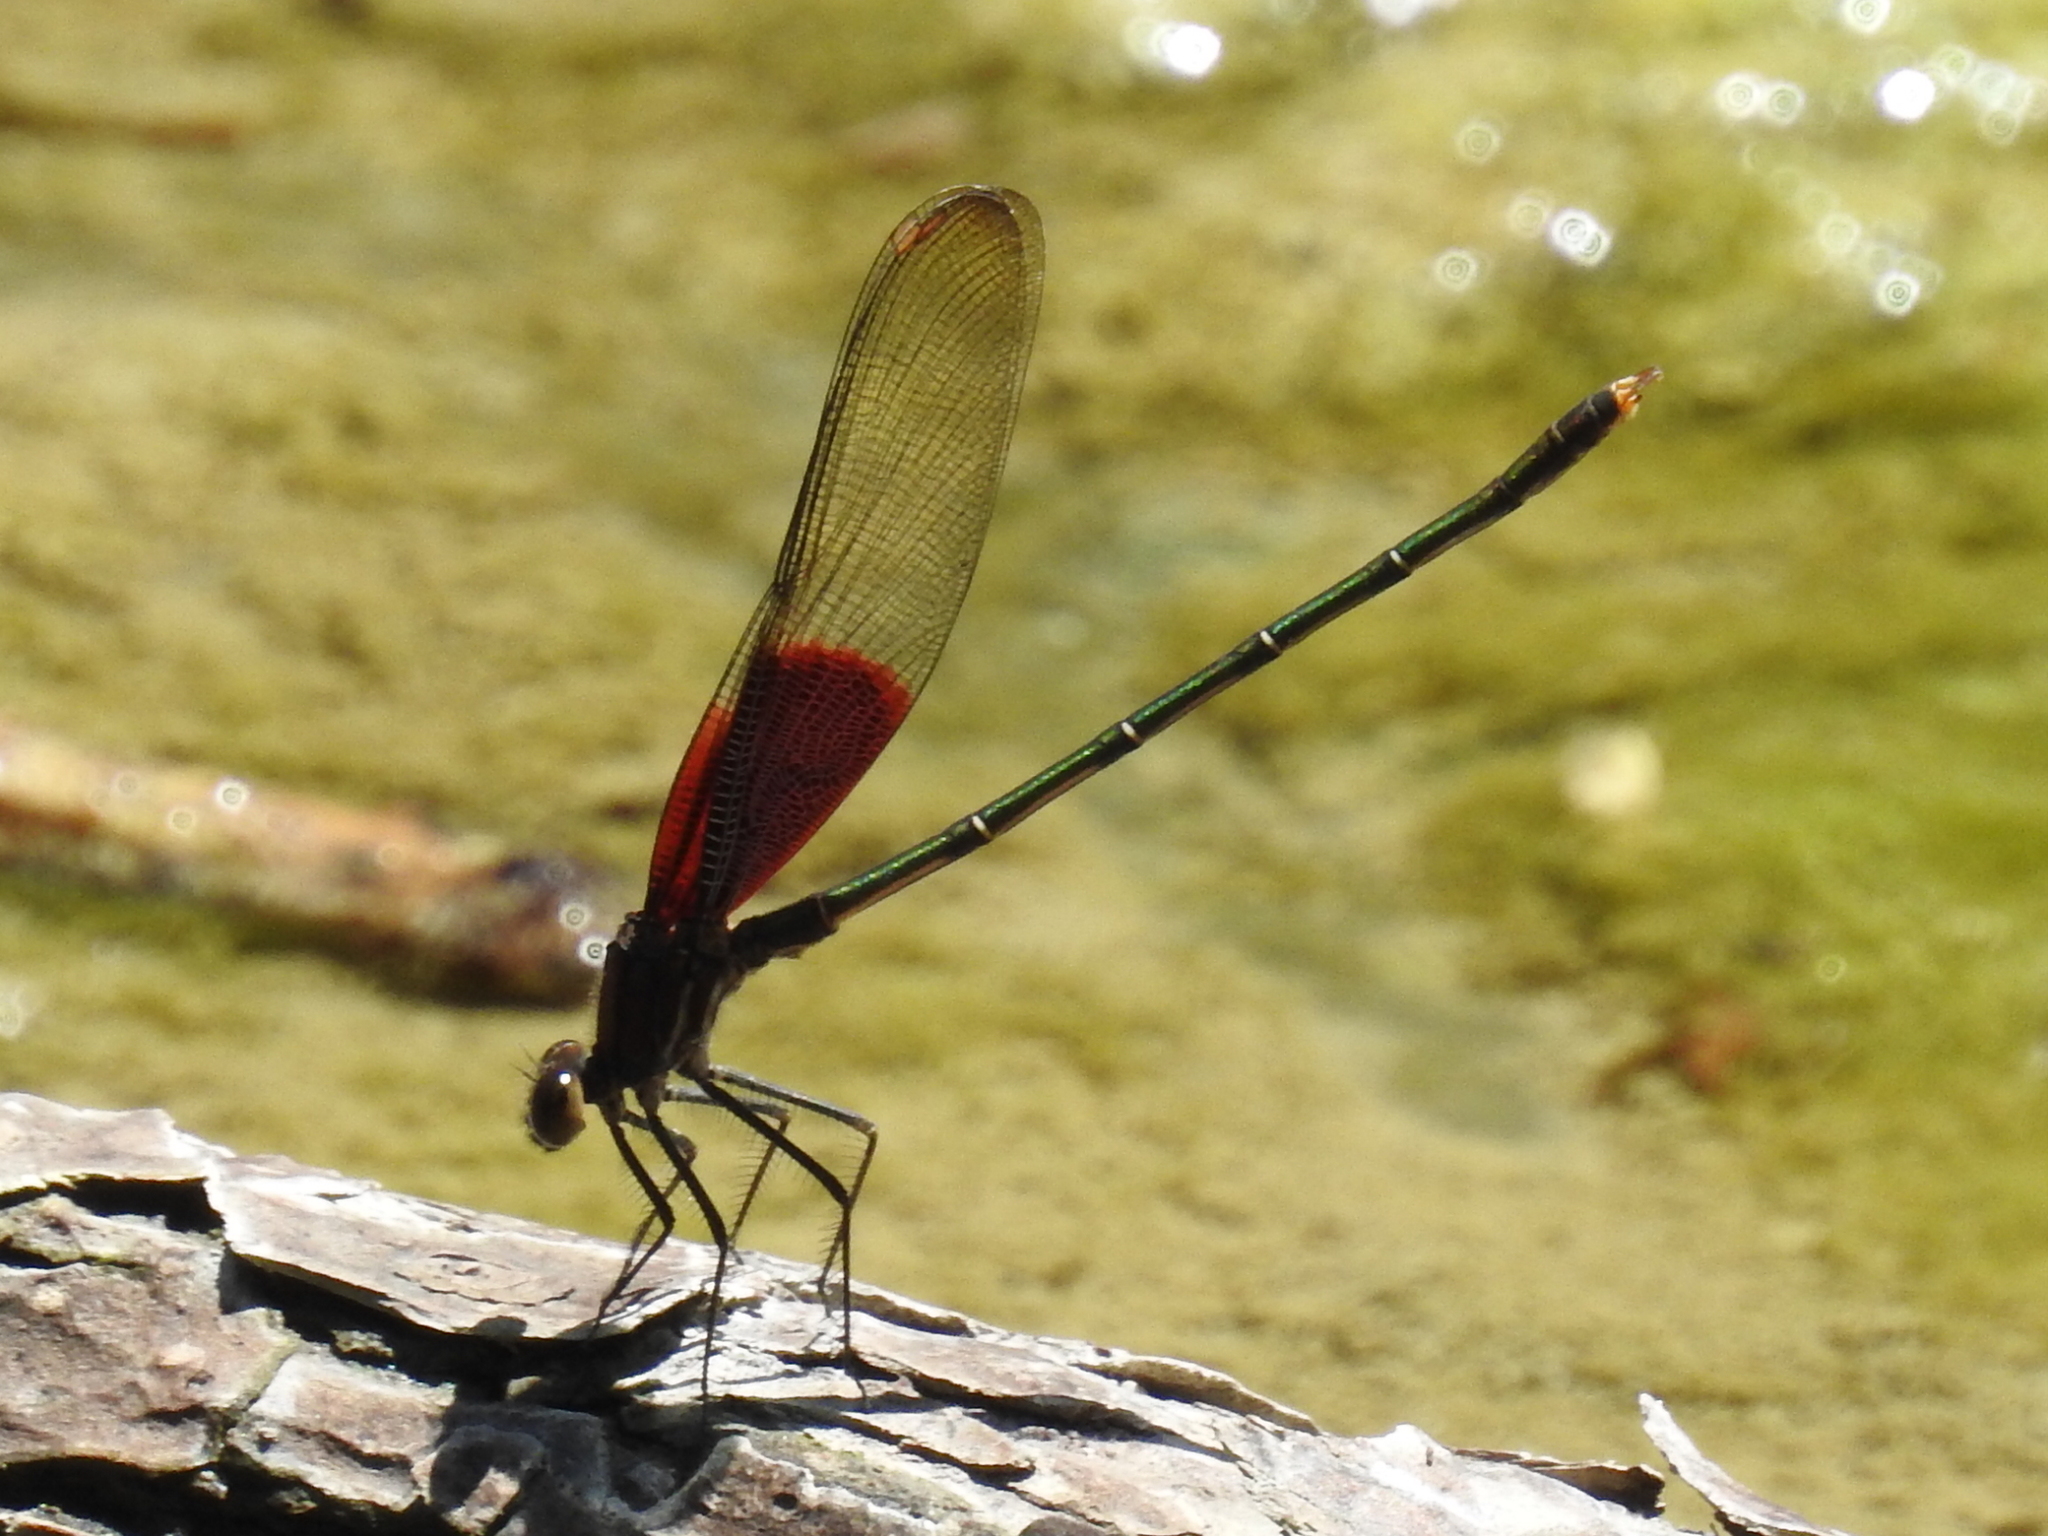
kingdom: Animalia
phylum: Arthropoda
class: Insecta
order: Odonata
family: Calopterygidae
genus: Hetaerina
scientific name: Hetaerina americana
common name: American rubyspot
